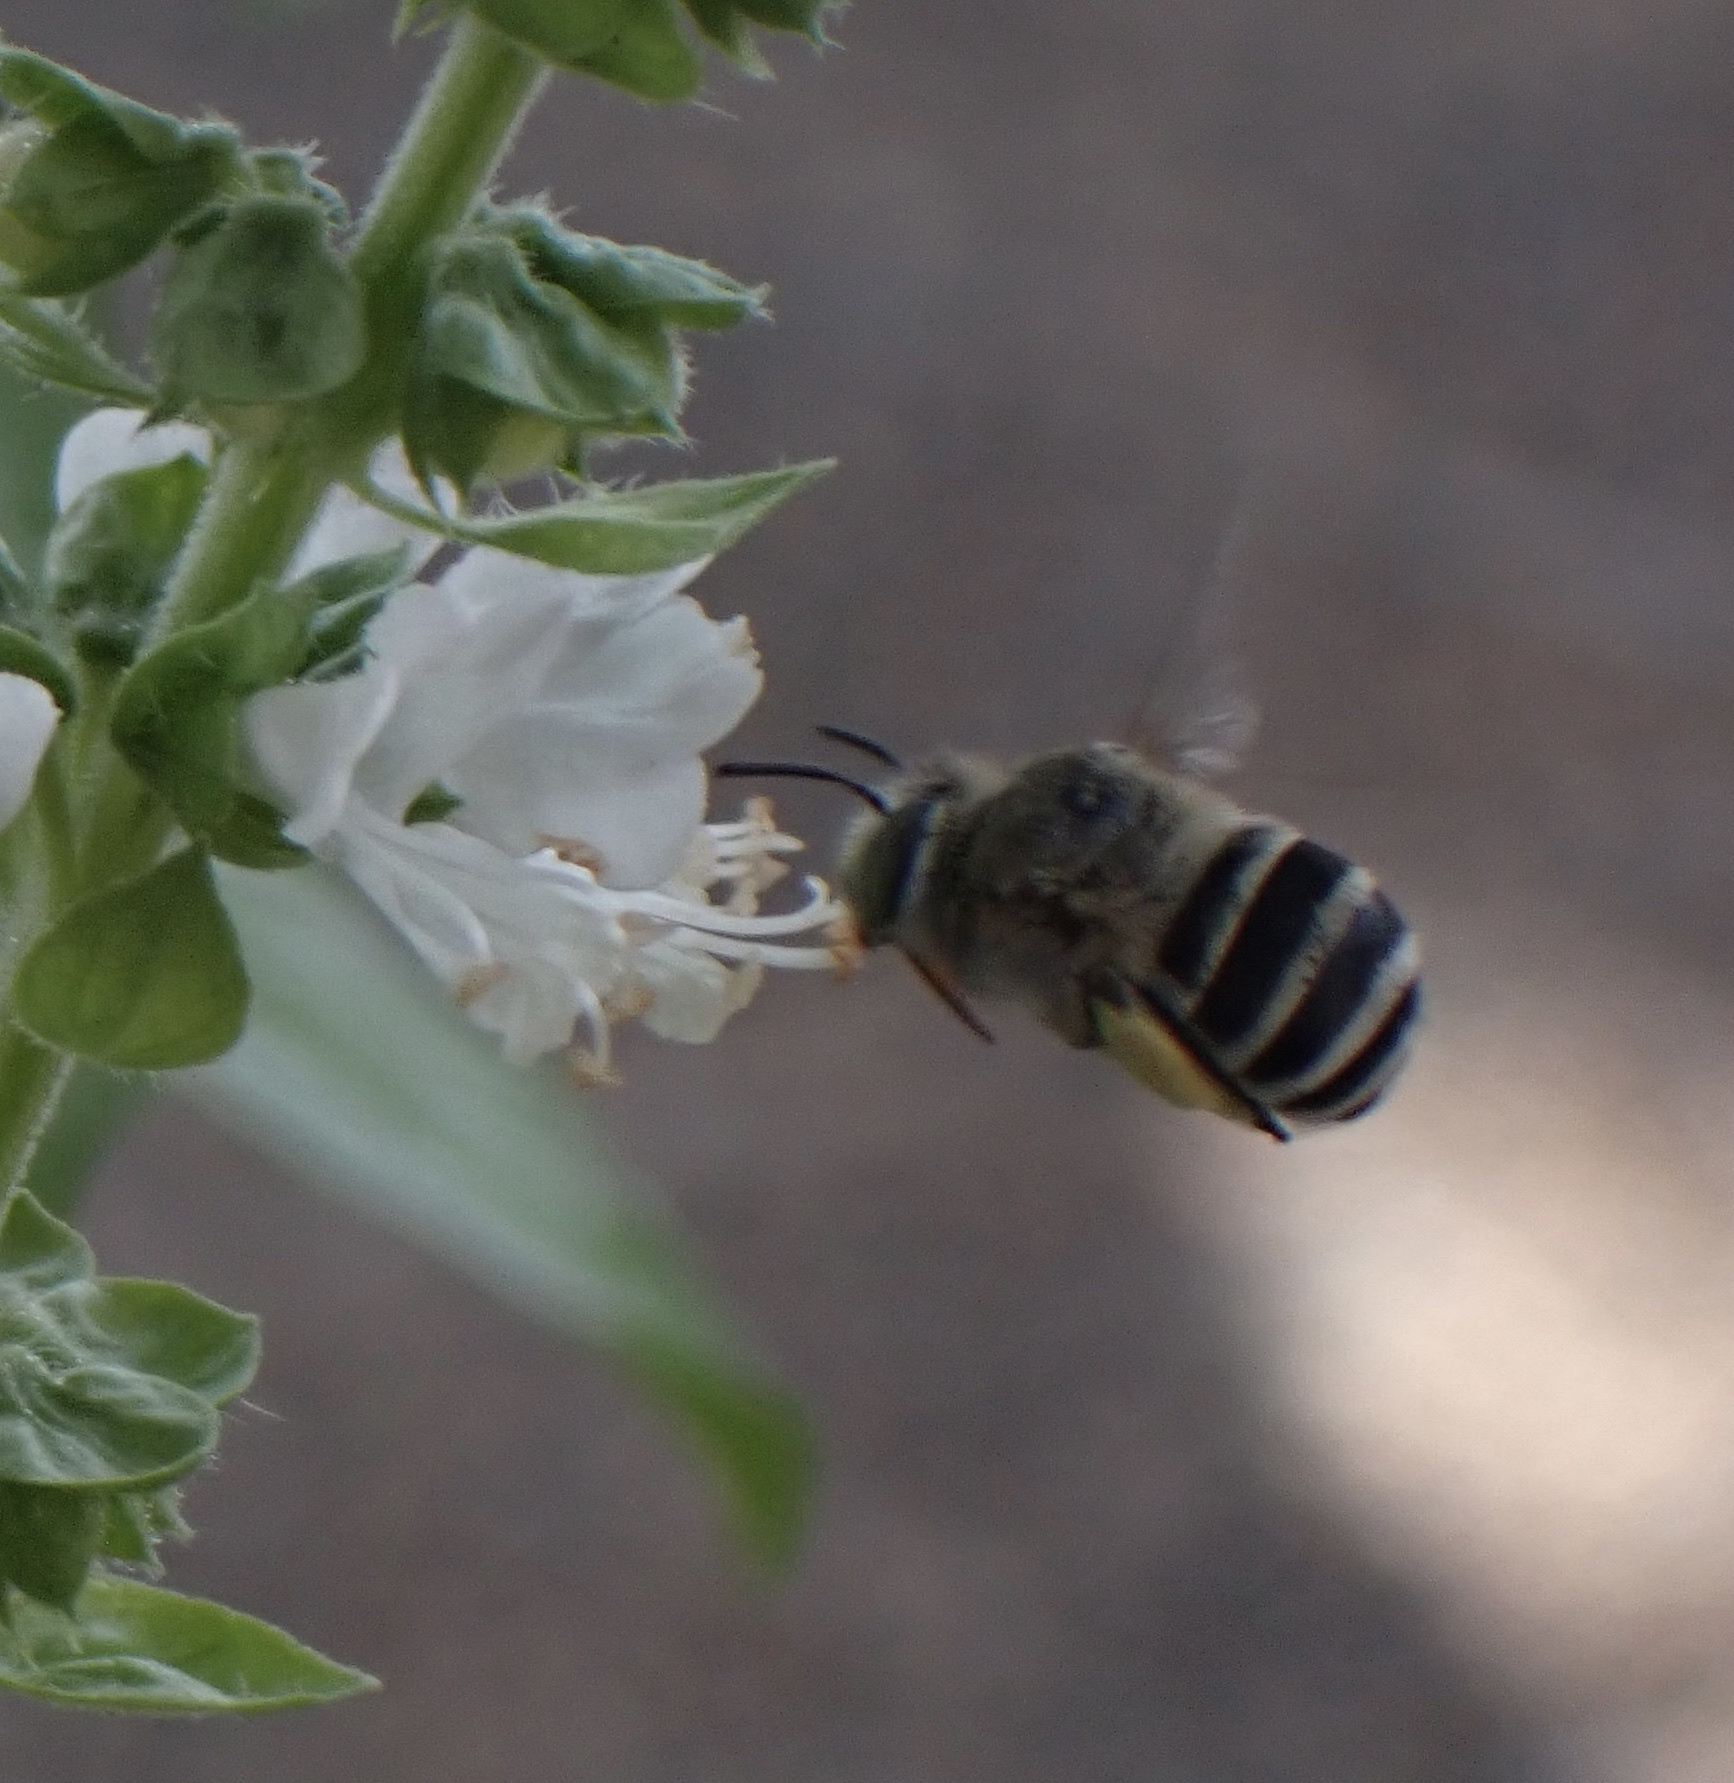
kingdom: Animalia
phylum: Arthropoda
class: Insecta
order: Hymenoptera
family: Apidae
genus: Amegilla
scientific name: Amegilla albigena
